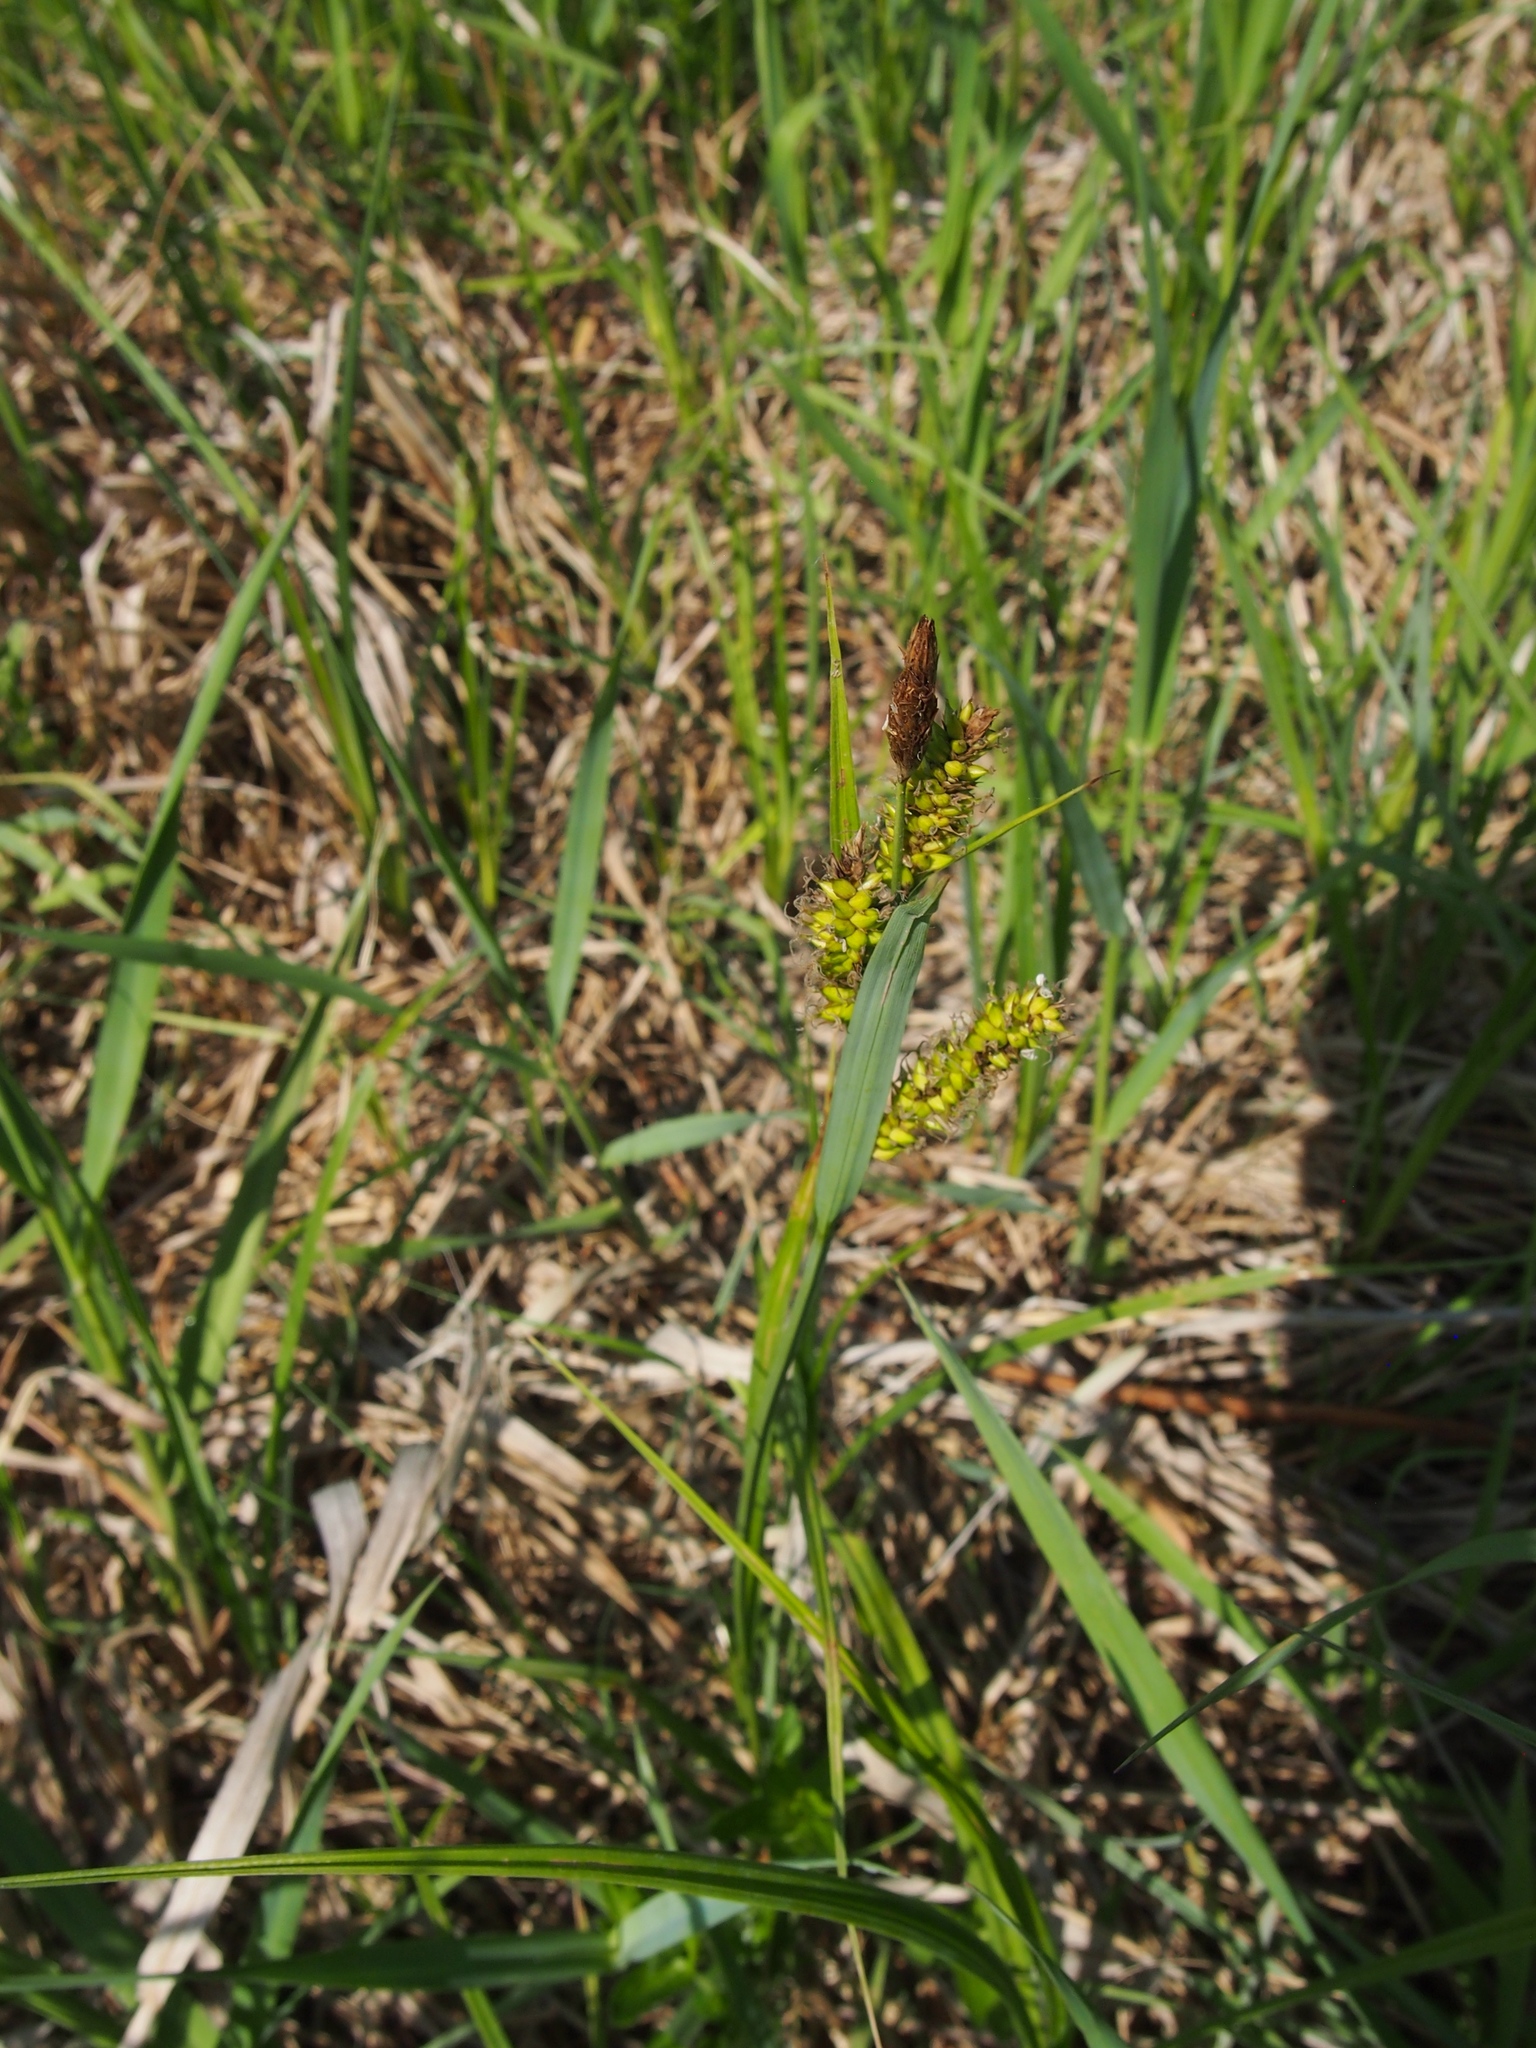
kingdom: Plantae
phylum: Tracheophyta
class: Liliopsida
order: Poales
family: Cyperaceae
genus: Carex
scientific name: Carex riparia
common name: Greater pond-sedge
